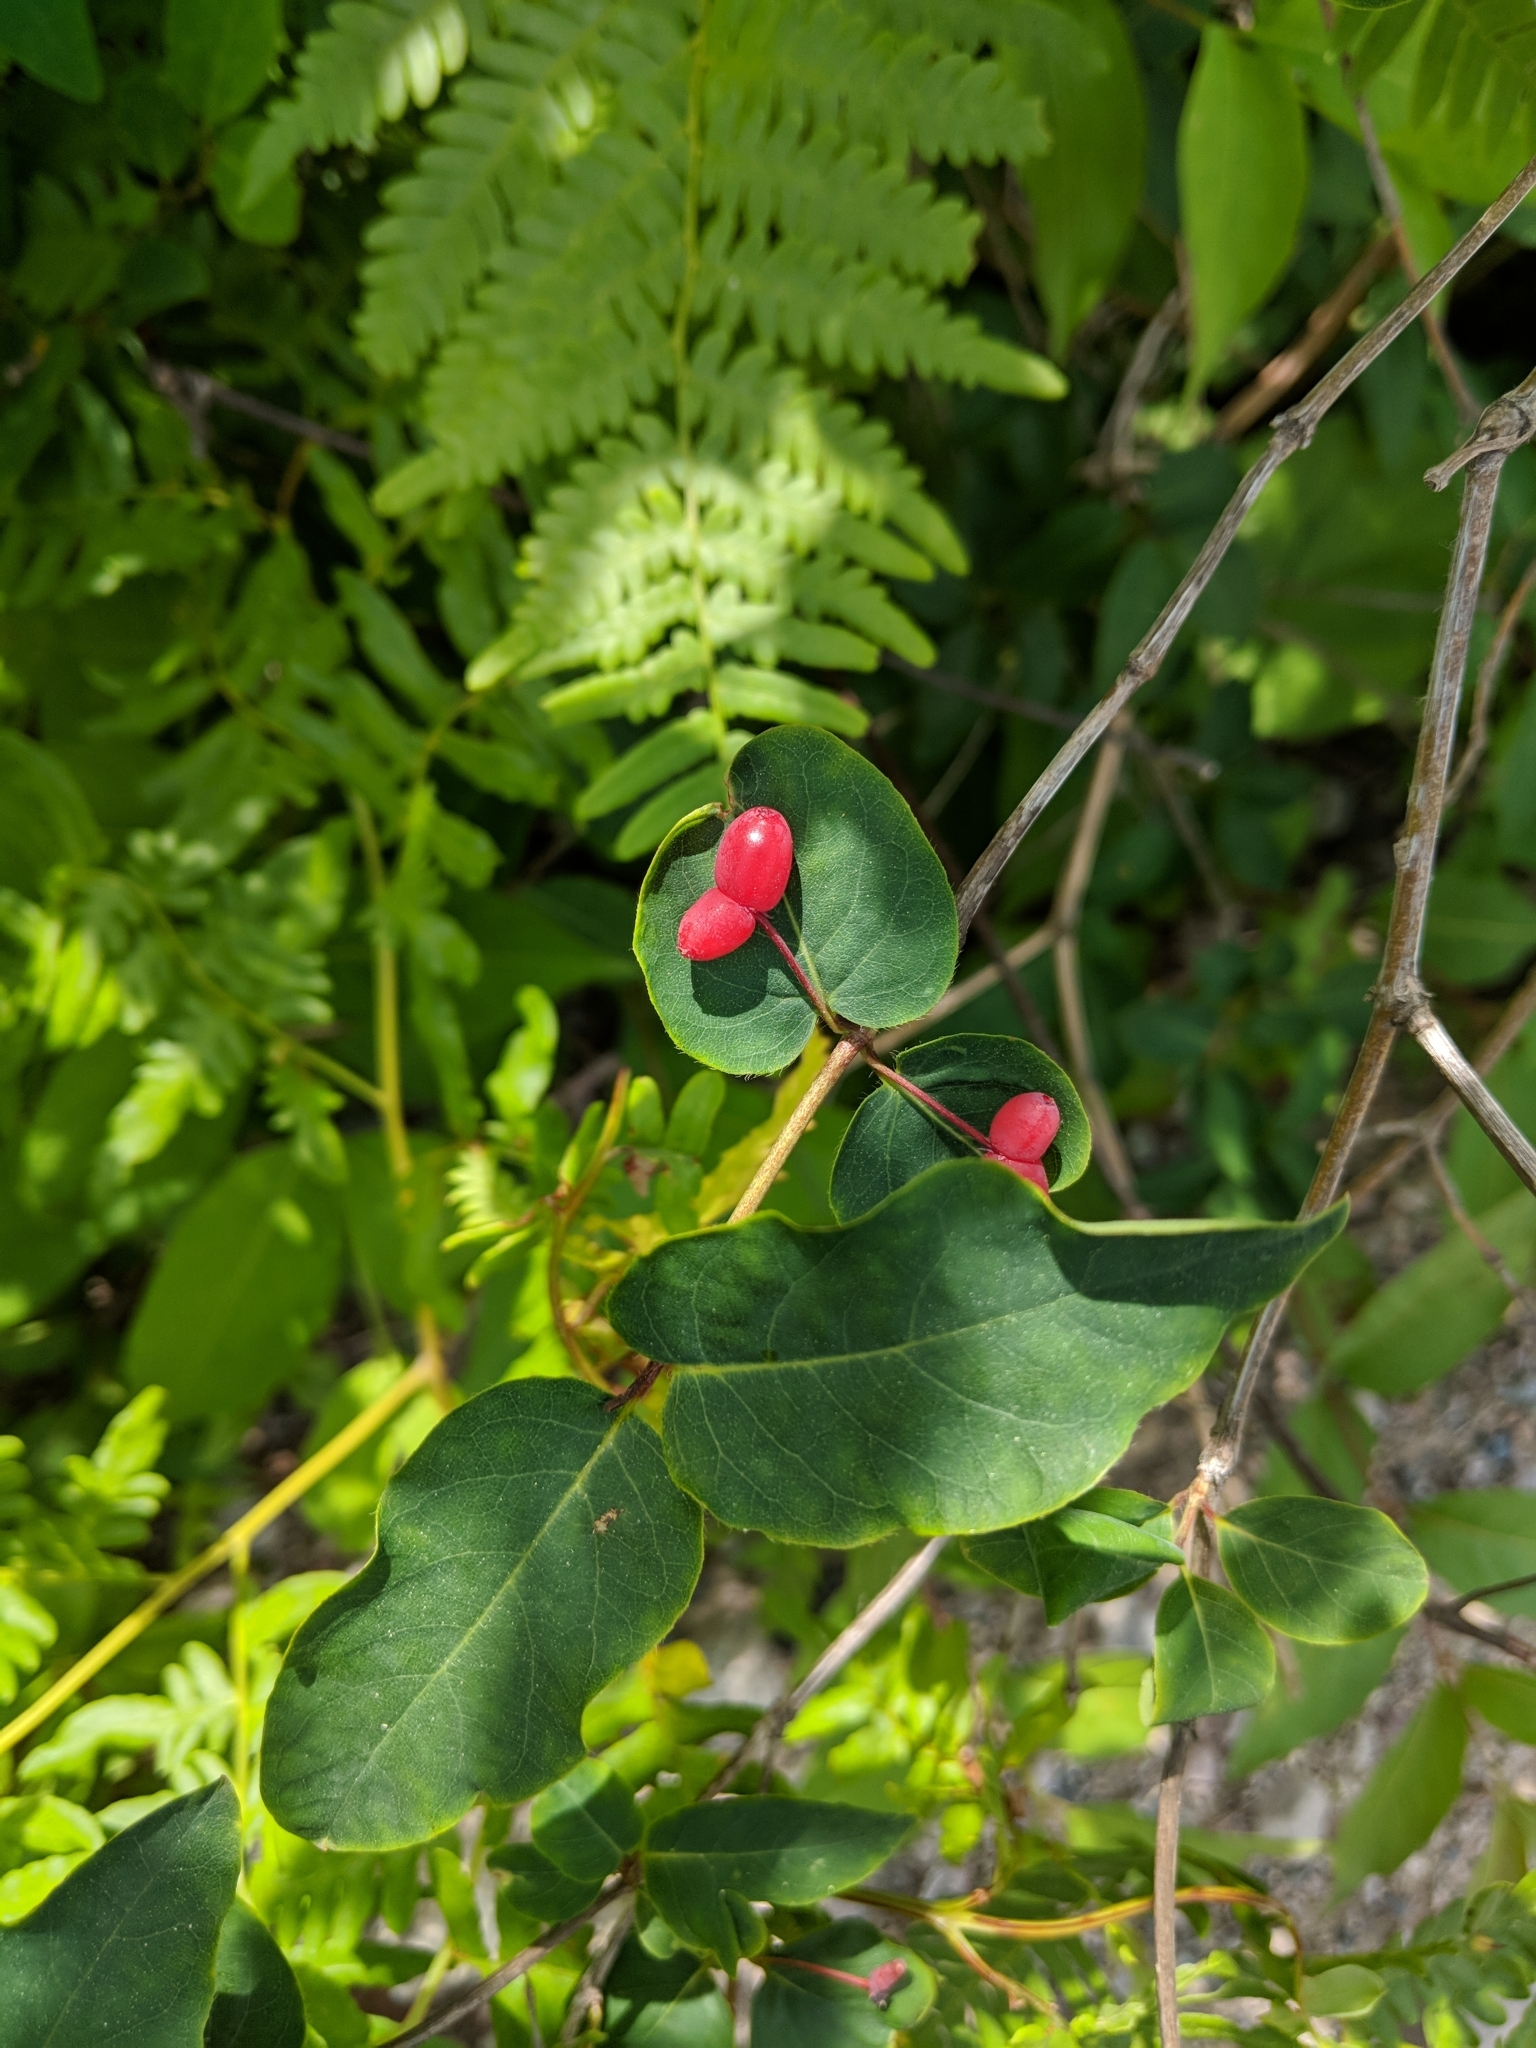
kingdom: Plantae
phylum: Tracheophyta
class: Magnoliopsida
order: Dipsacales
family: Caprifoliaceae
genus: Lonicera
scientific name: Lonicera canadensis
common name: American fly-honeysuckle
